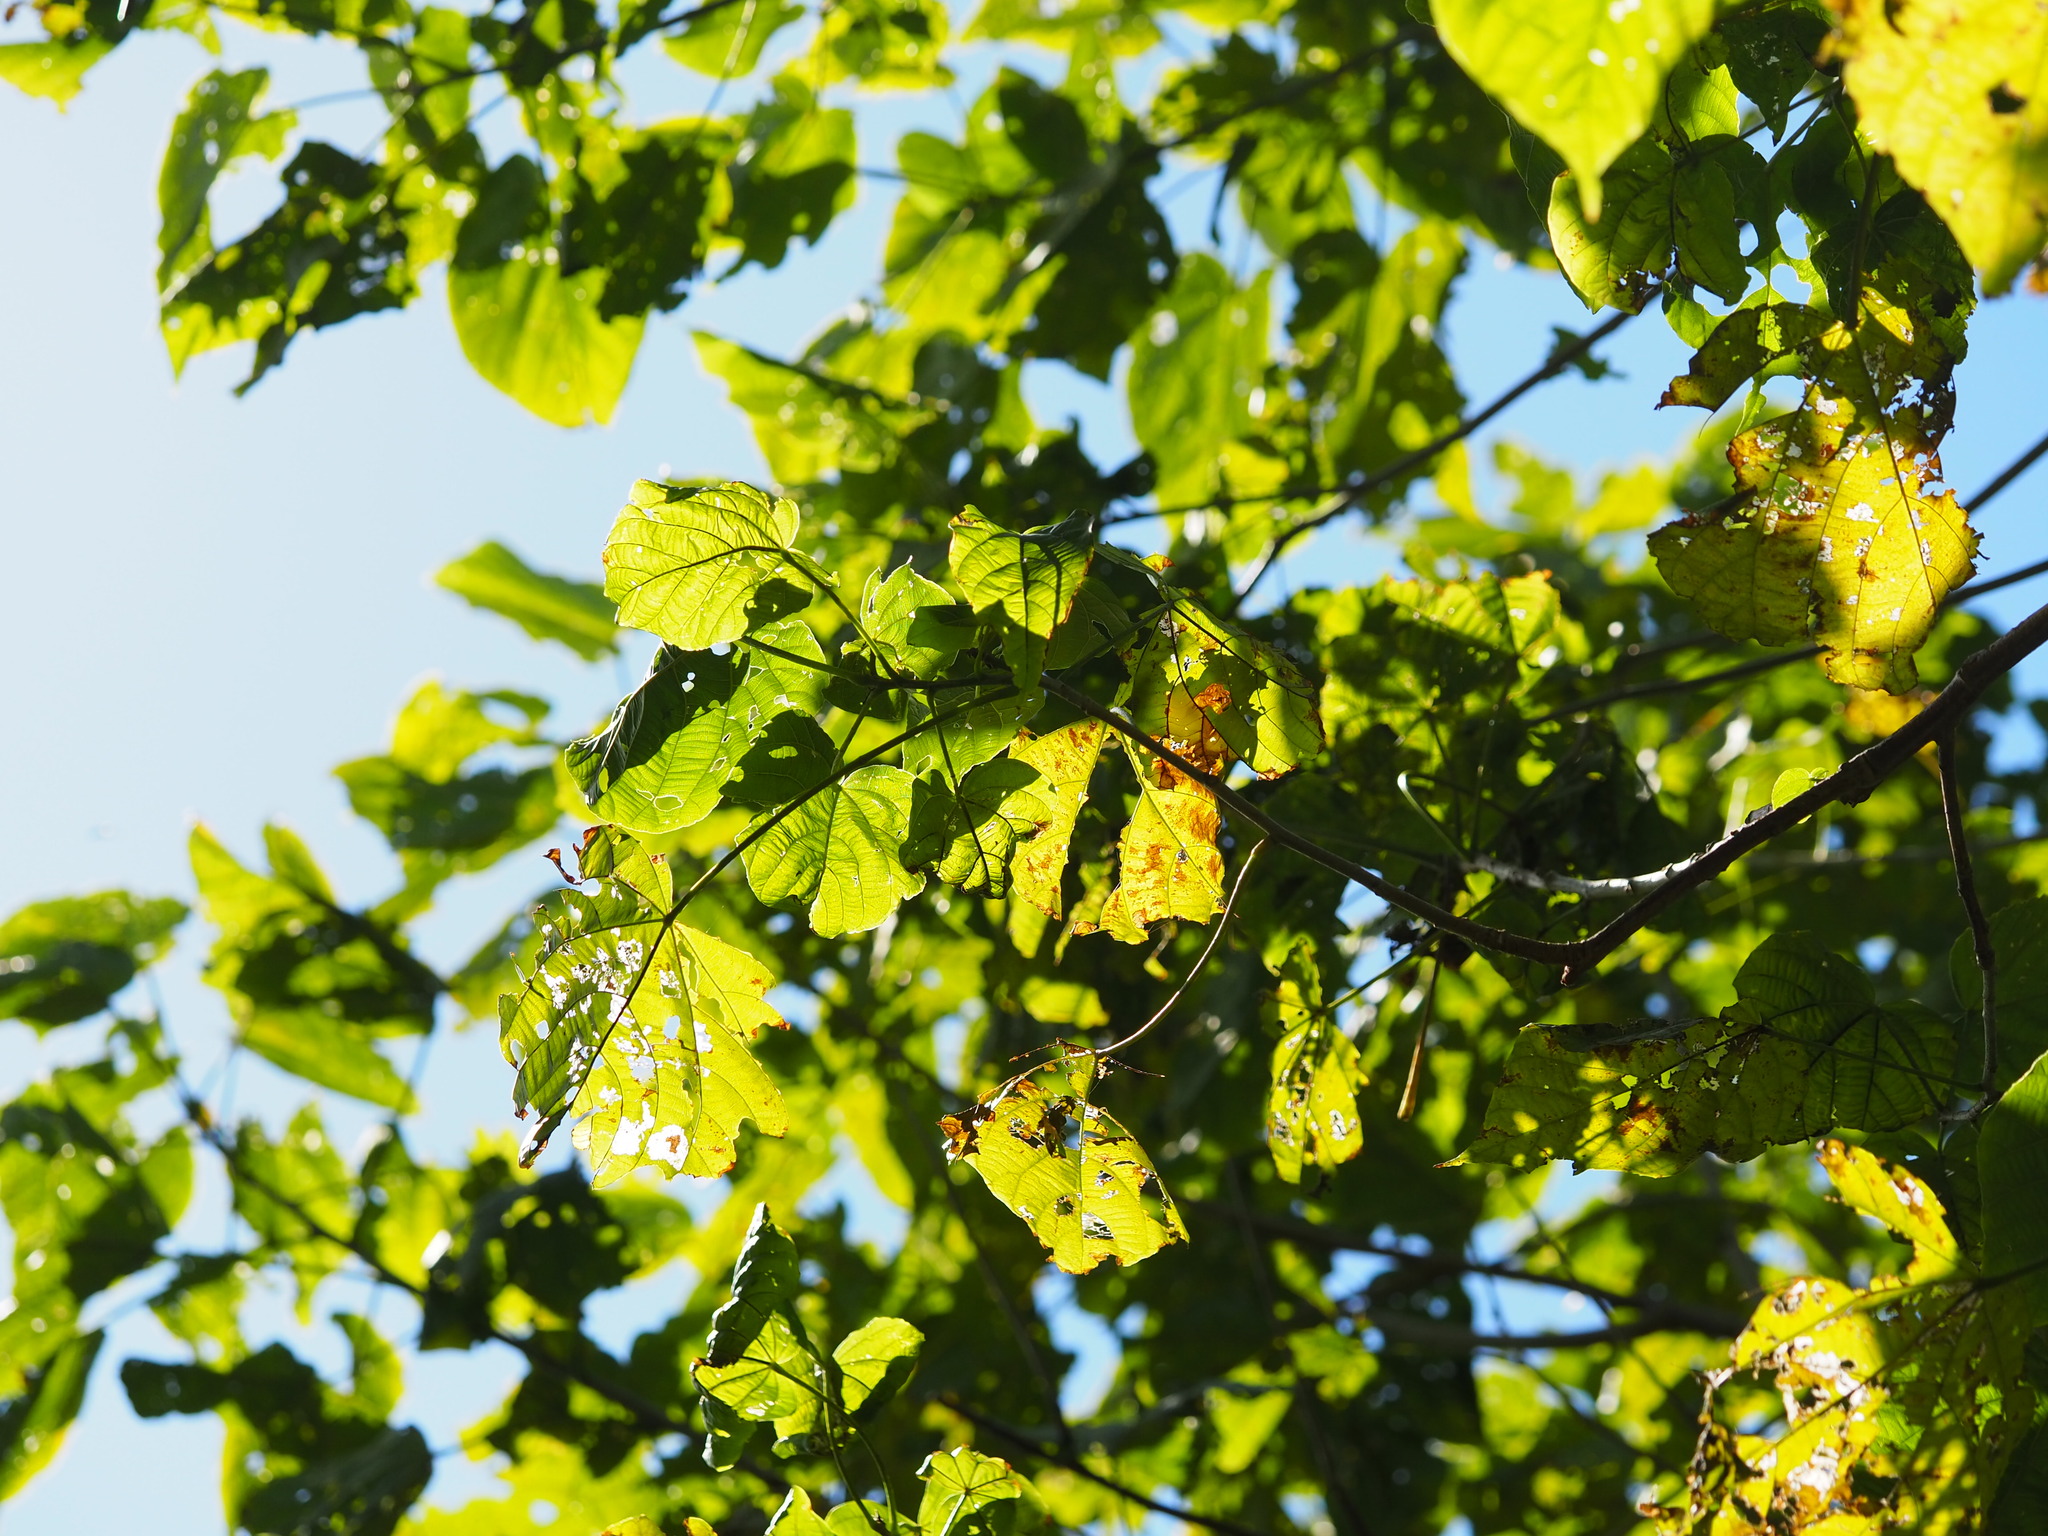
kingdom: Plantae
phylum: Tracheophyta
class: Magnoliopsida
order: Malvales
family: Malvaceae
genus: Kleinhovia
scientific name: Kleinhovia hospita
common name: Guest-tree
